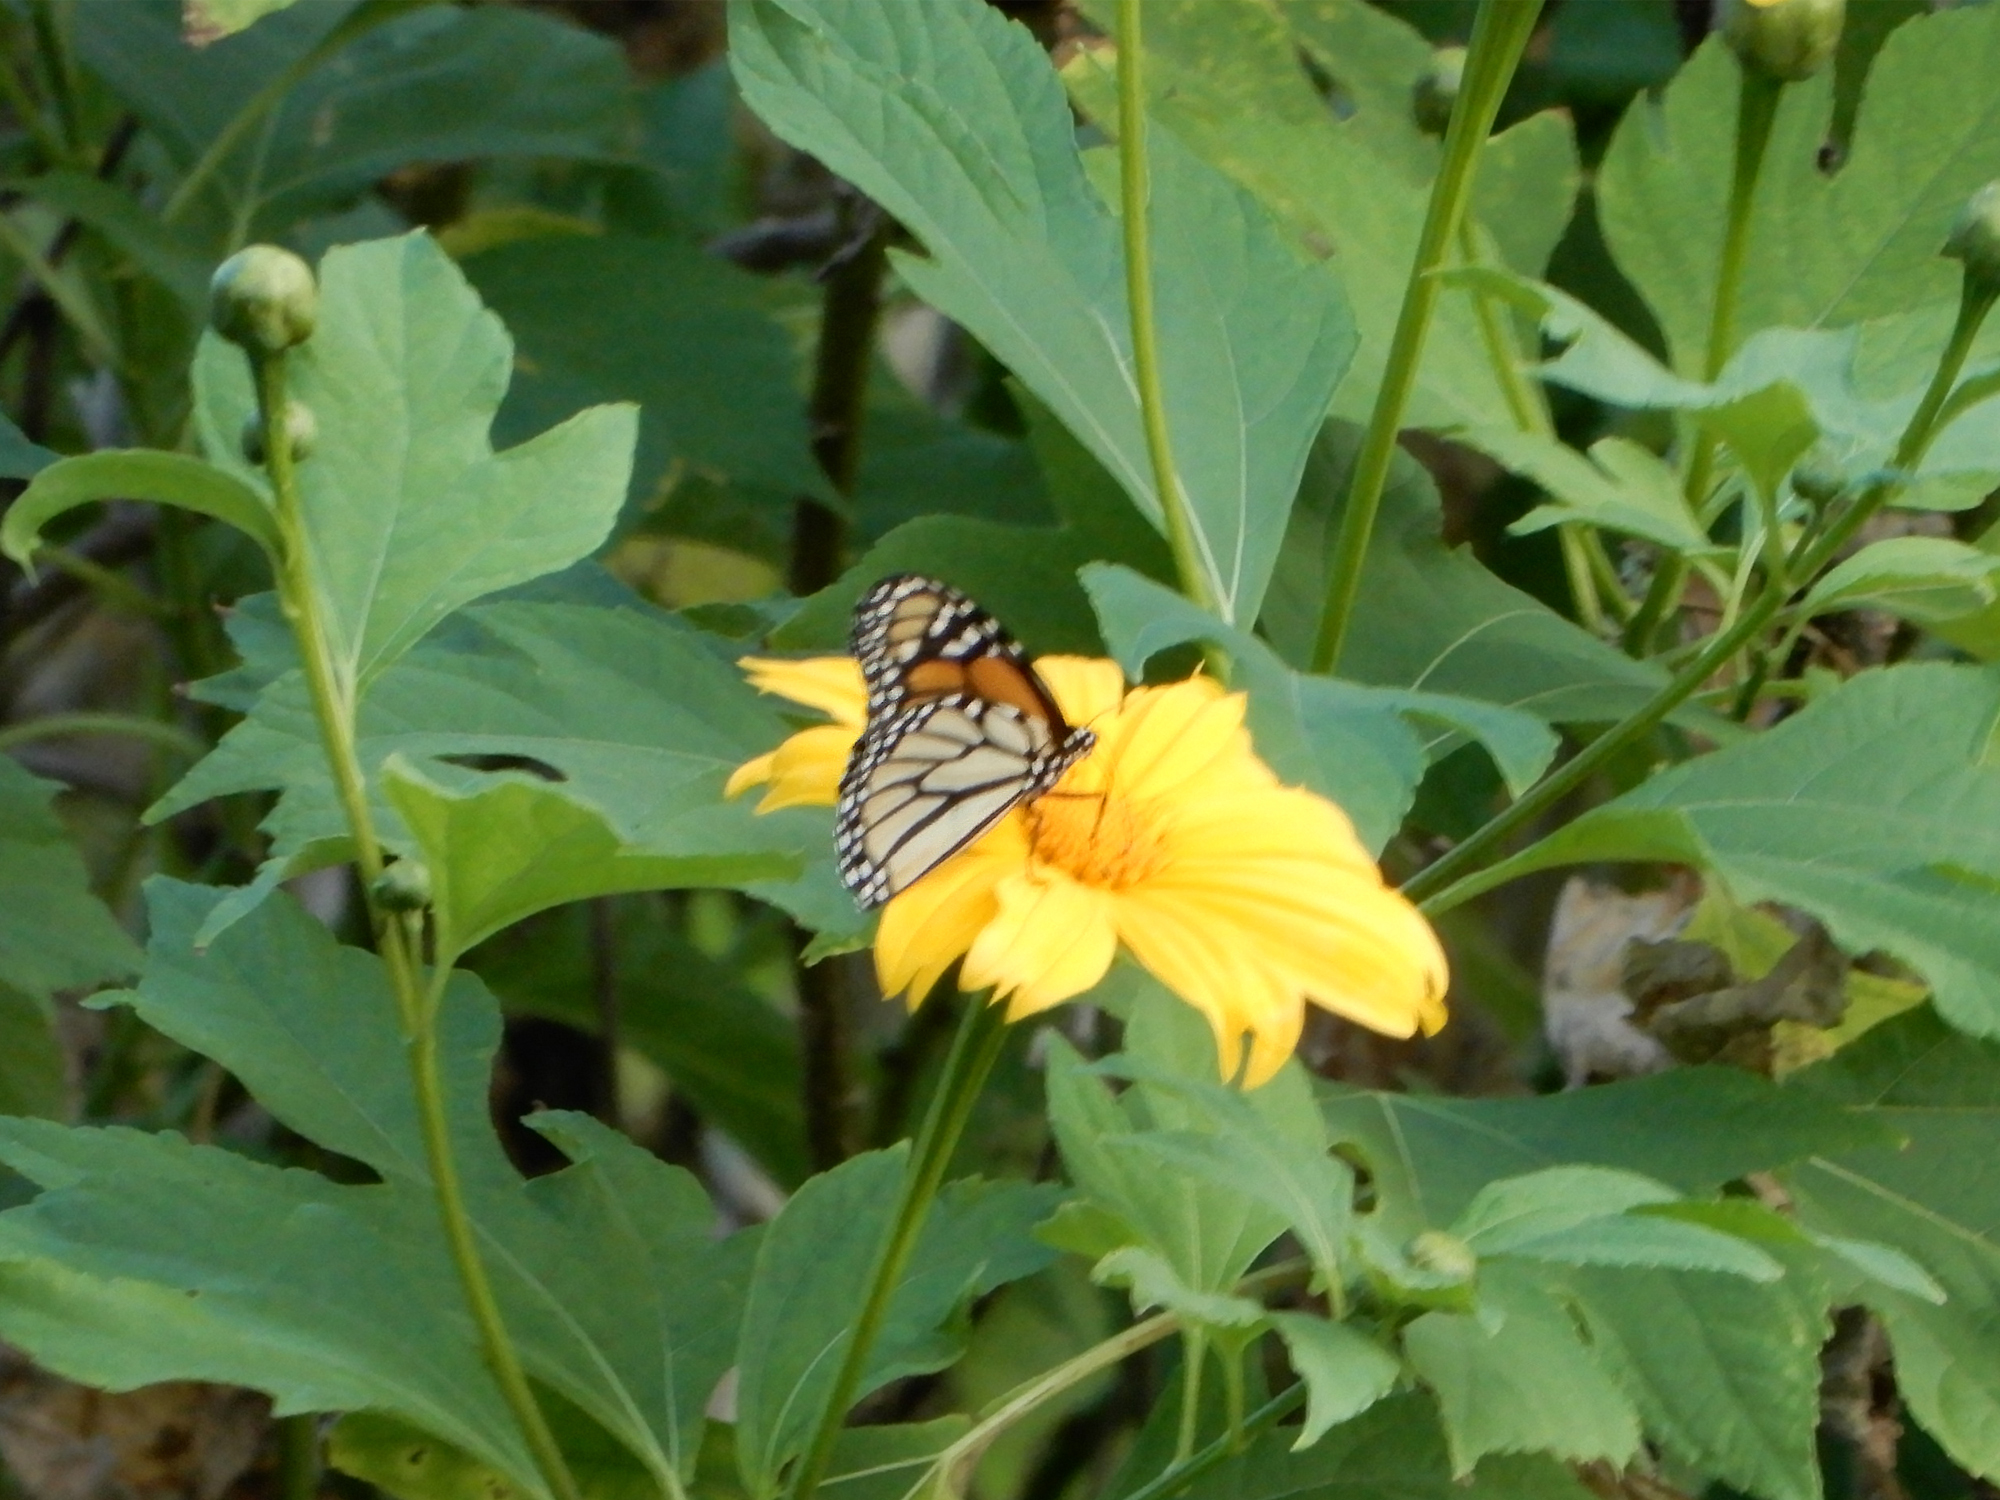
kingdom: Animalia
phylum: Arthropoda
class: Insecta
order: Lepidoptera
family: Nymphalidae
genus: Danaus
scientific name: Danaus plexippus
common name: Monarch
